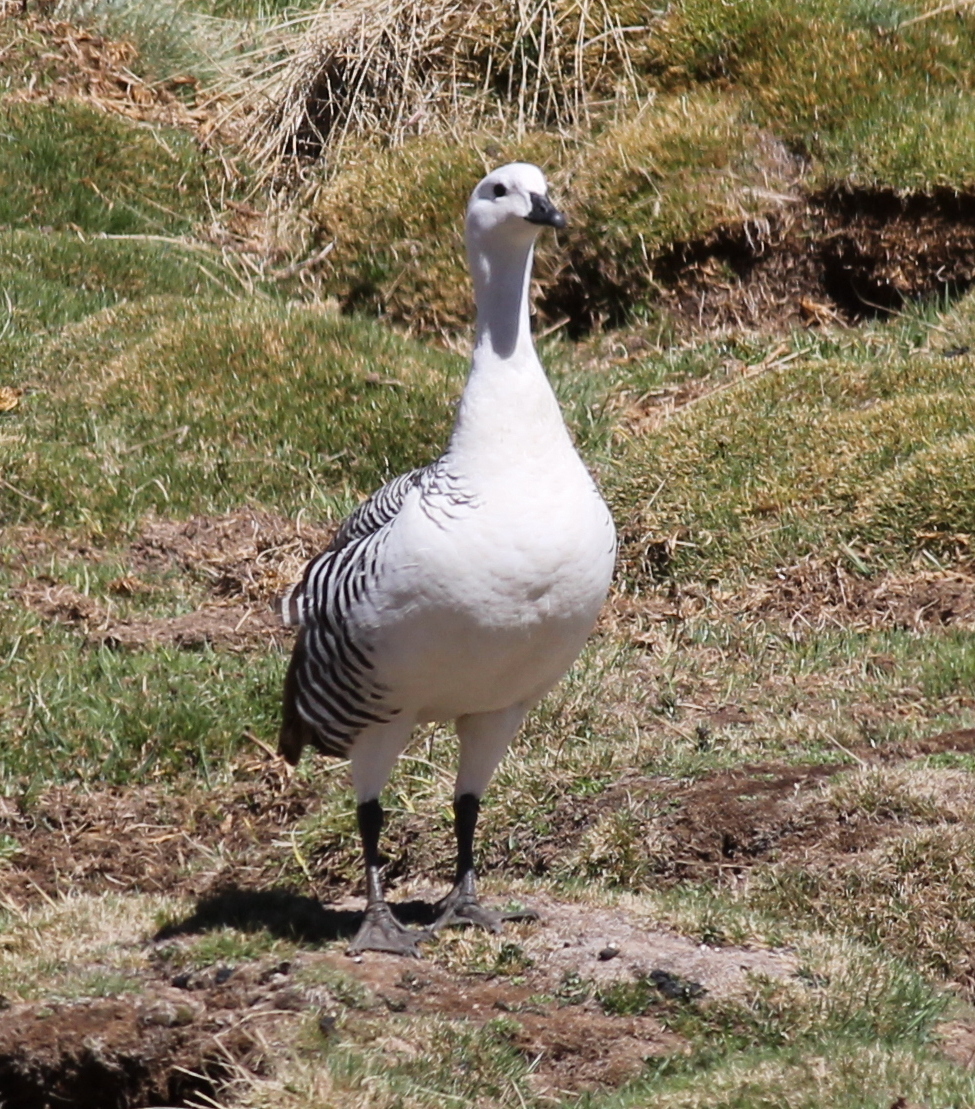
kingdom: Animalia
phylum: Chordata
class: Aves
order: Anseriformes
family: Anatidae
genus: Chloephaga
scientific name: Chloephaga picta
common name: Upland goose
